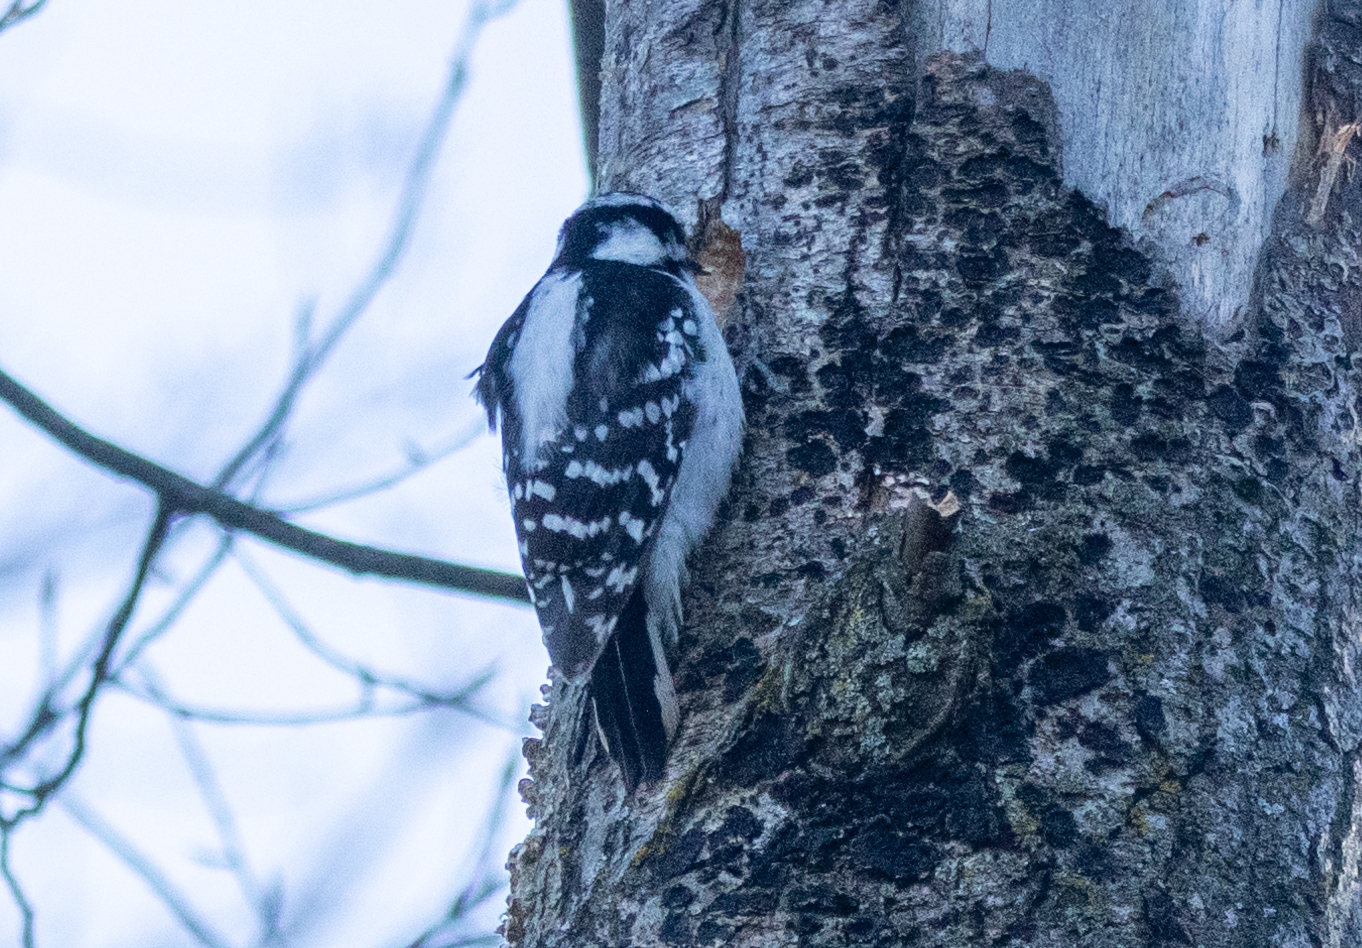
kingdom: Animalia
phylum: Chordata
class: Aves
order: Piciformes
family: Picidae
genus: Dryobates
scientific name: Dryobates pubescens
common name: Downy woodpecker
